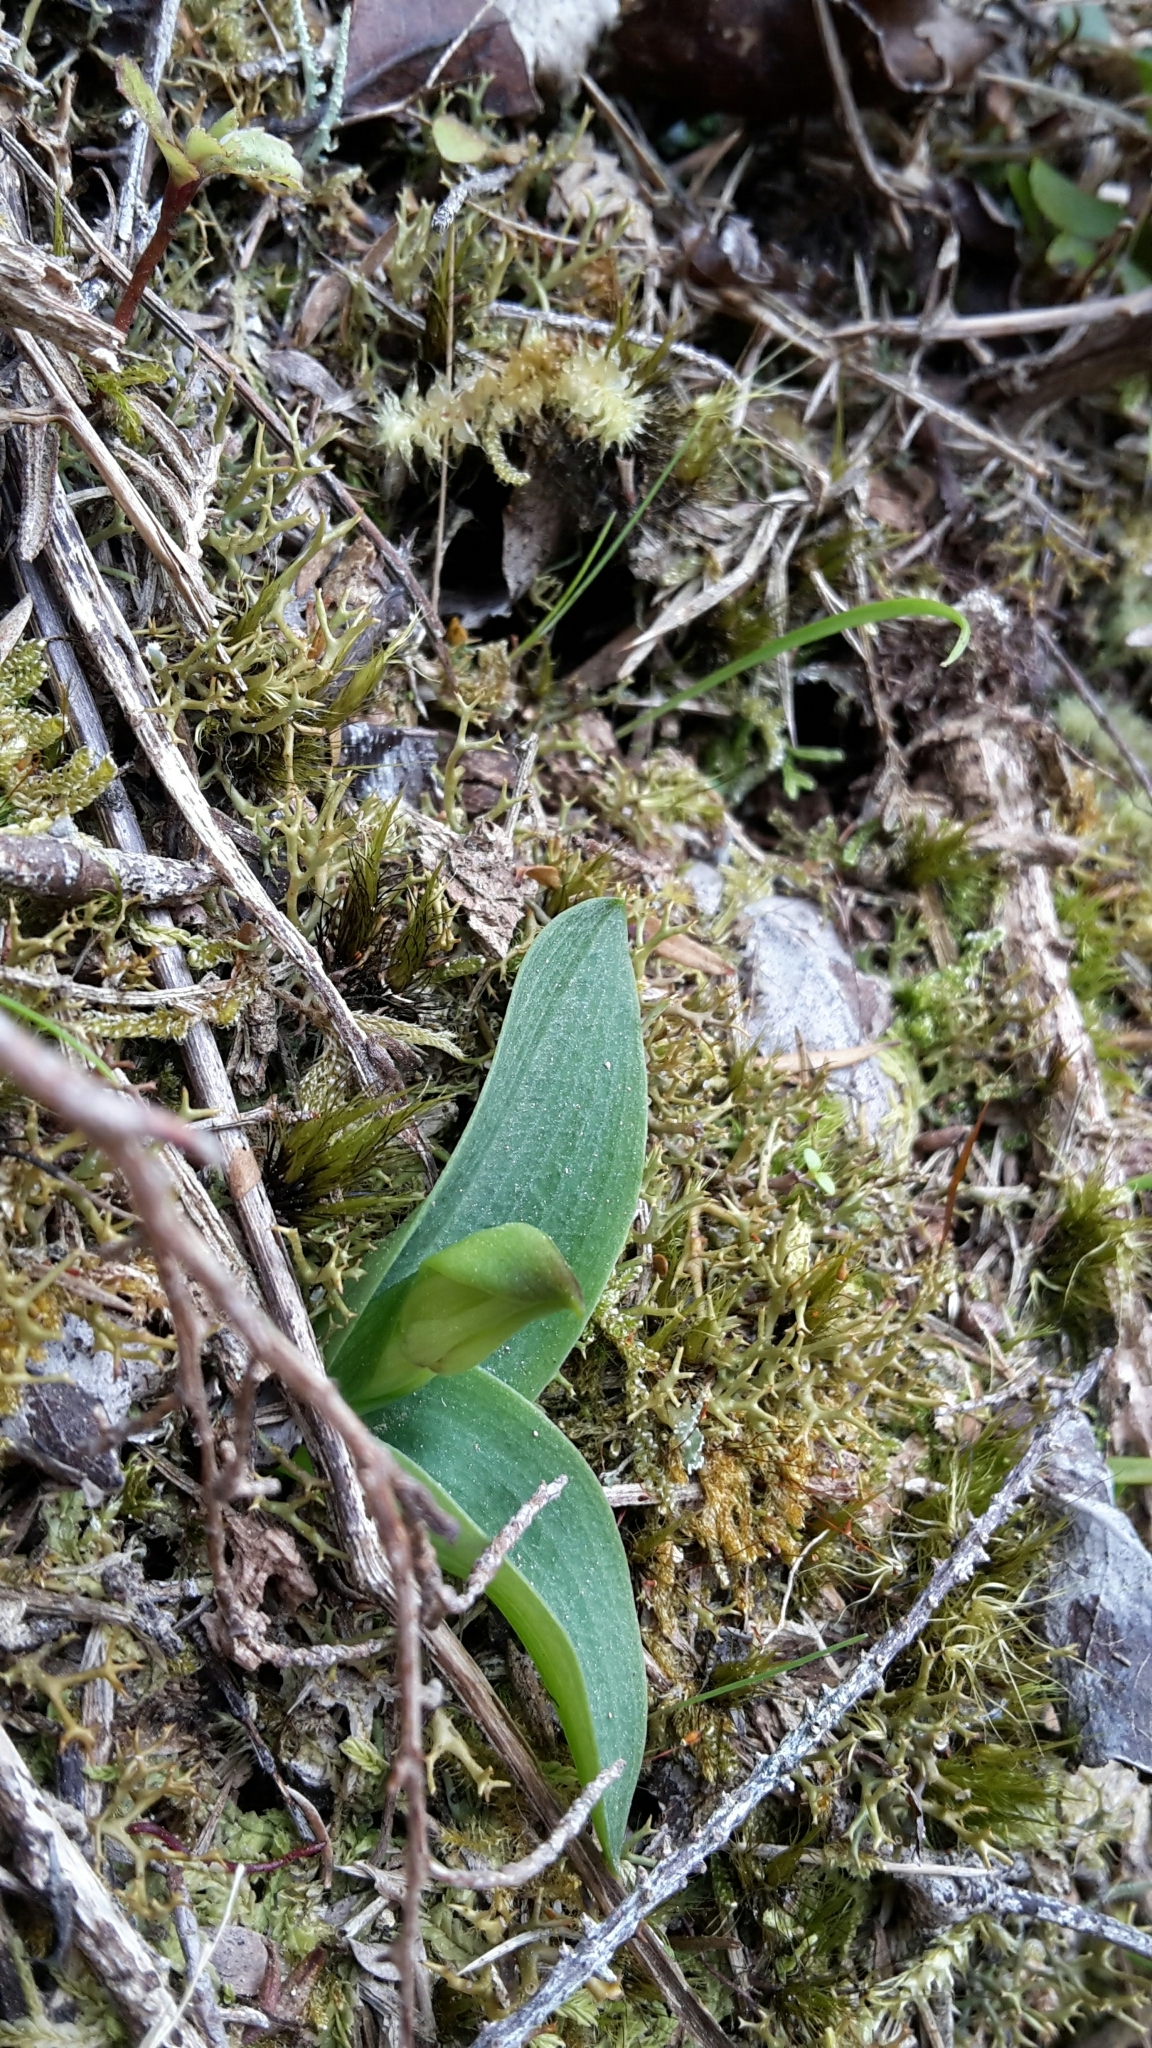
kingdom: Plantae
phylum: Tracheophyta
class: Liliopsida
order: Asparagales
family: Orchidaceae
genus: Chiloglottis
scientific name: Chiloglottis cornuta
